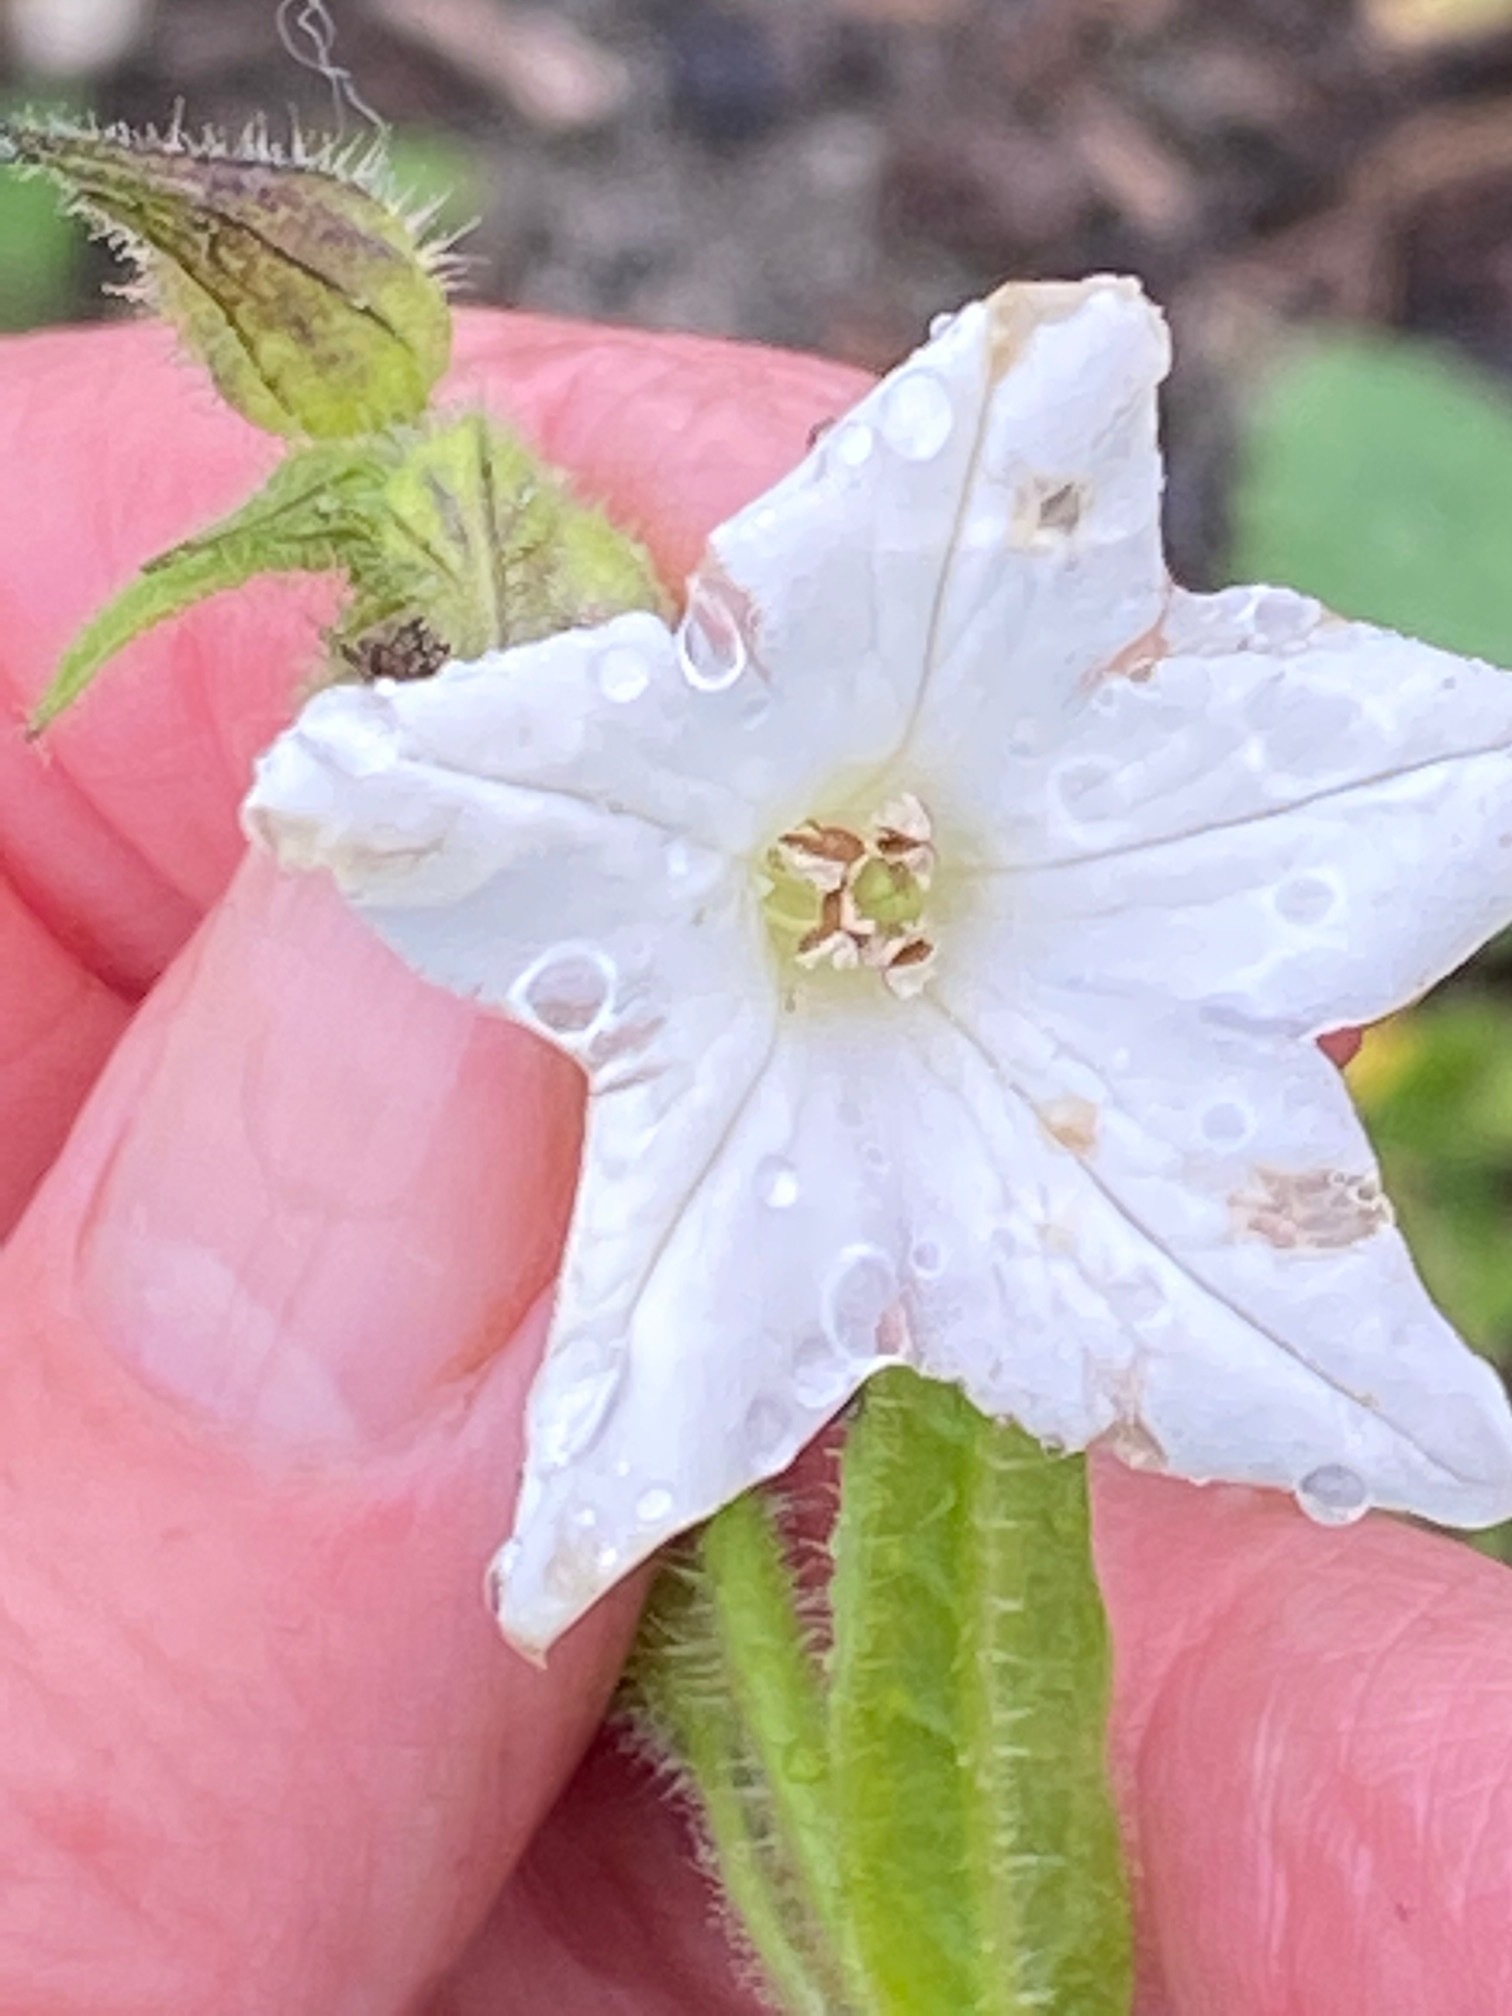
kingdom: Plantae
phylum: Tracheophyta
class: Magnoliopsida
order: Solanales
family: Solanaceae
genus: Nicotiana
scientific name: Nicotiana quadrivalvis
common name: Indian tobacco
